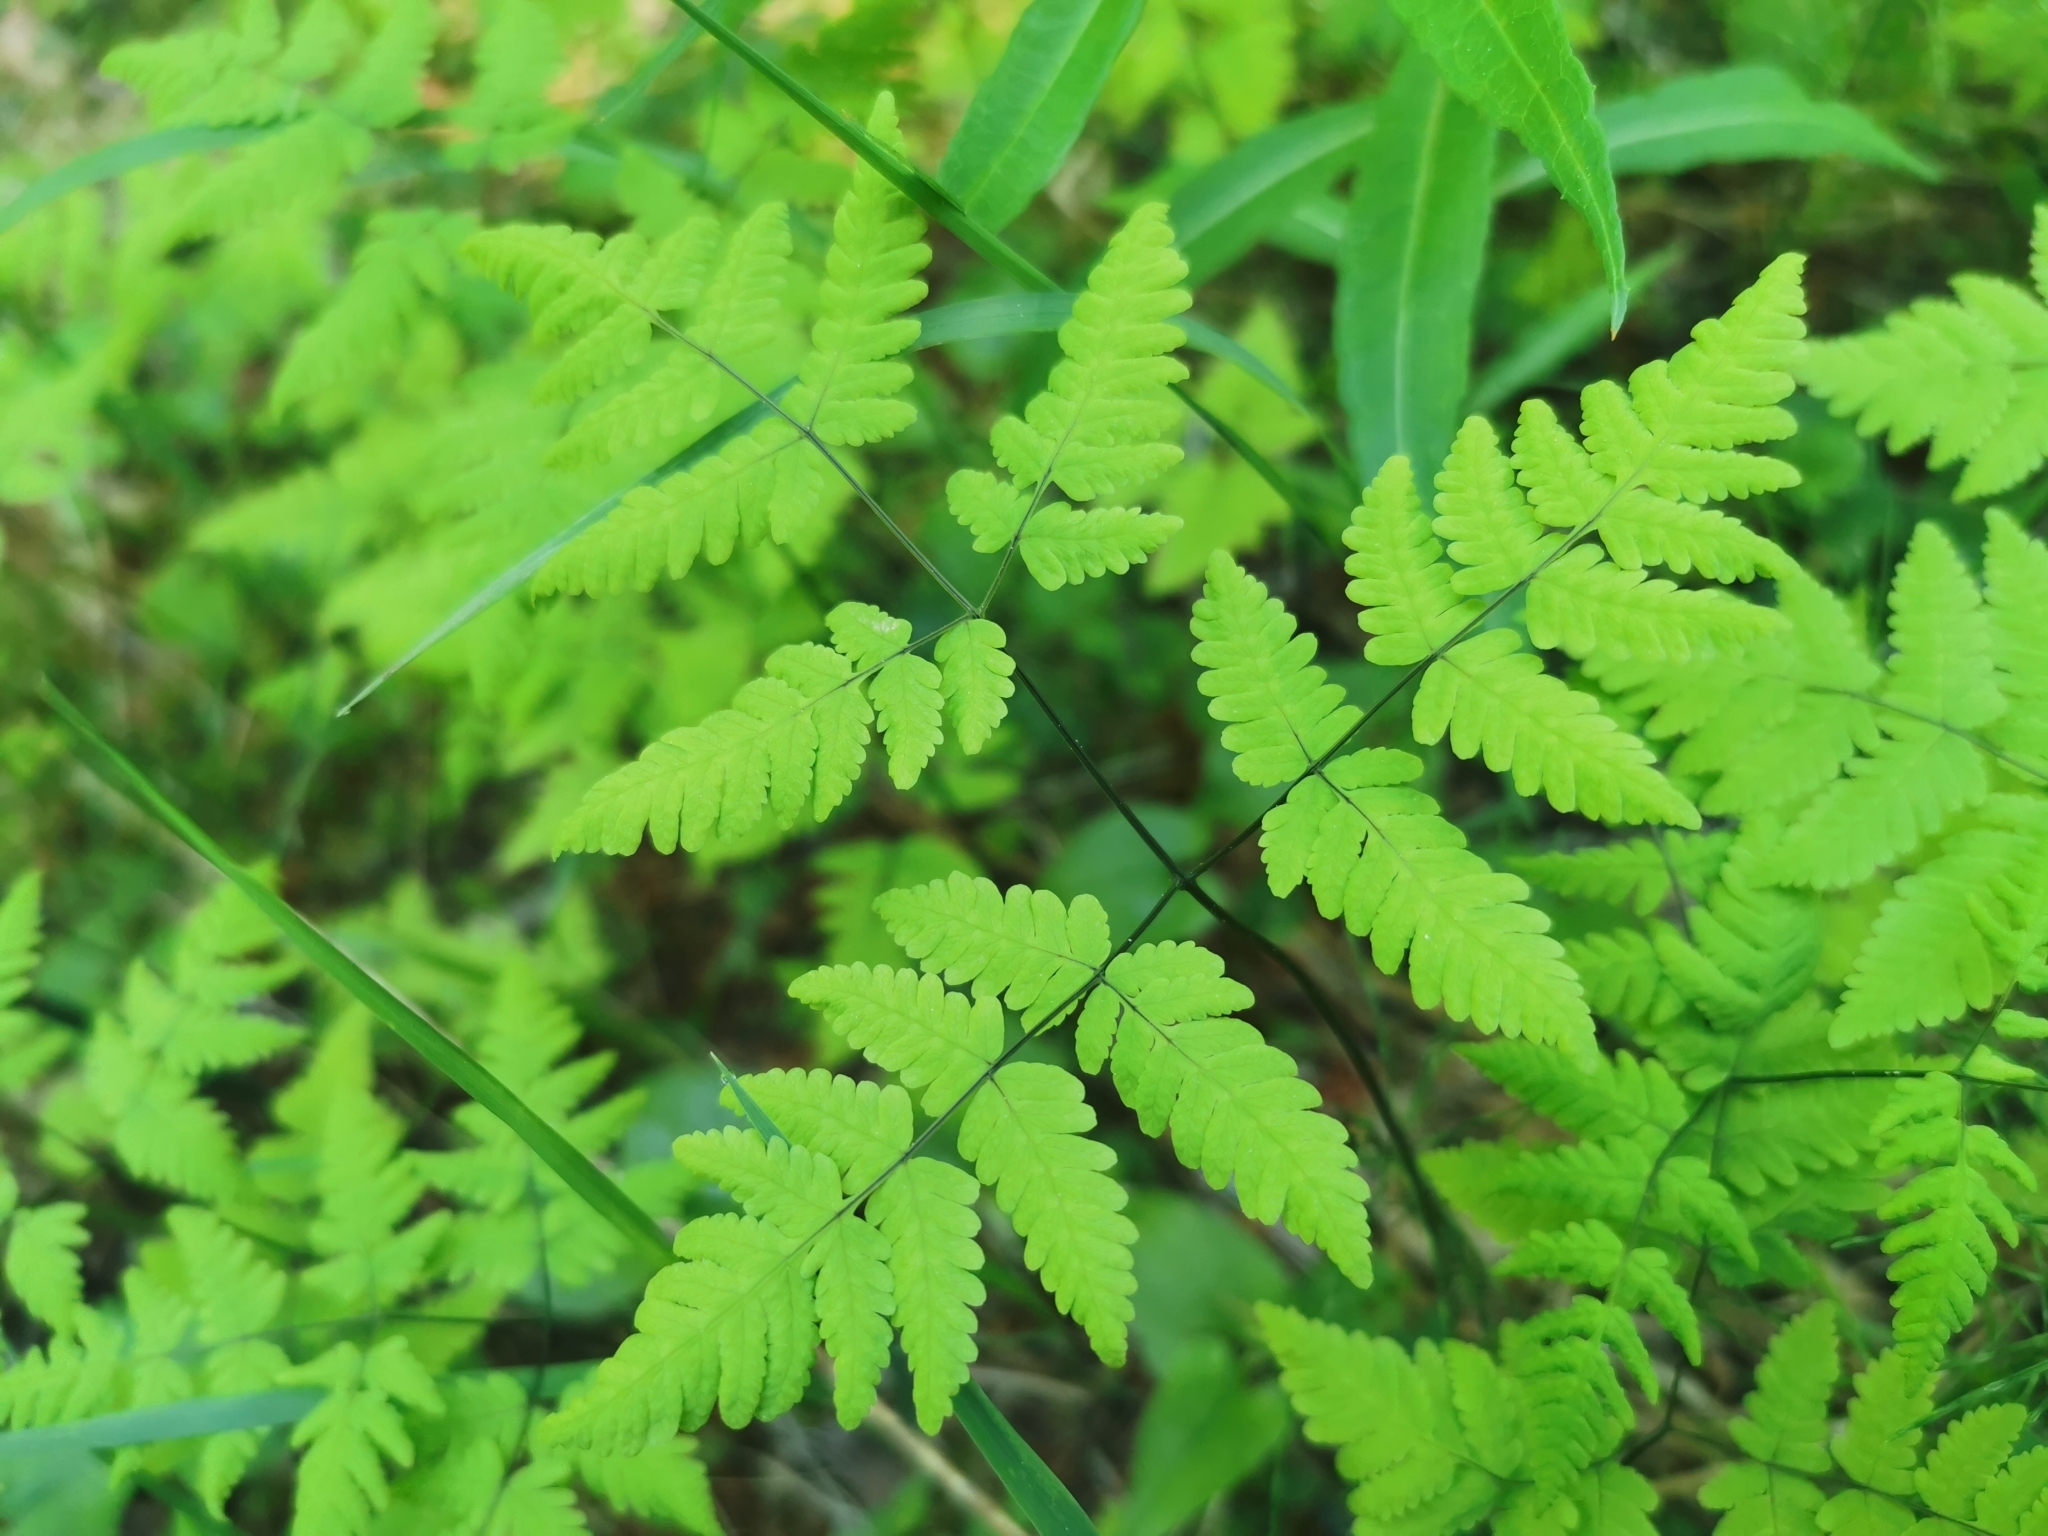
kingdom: Plantae
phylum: Tracheophyta
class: Polypodiopsida
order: Polypodiales
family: Cystopteridaceae
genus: Gymnocarpium
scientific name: Gymnocarpium dryopteris
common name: Oak fern
